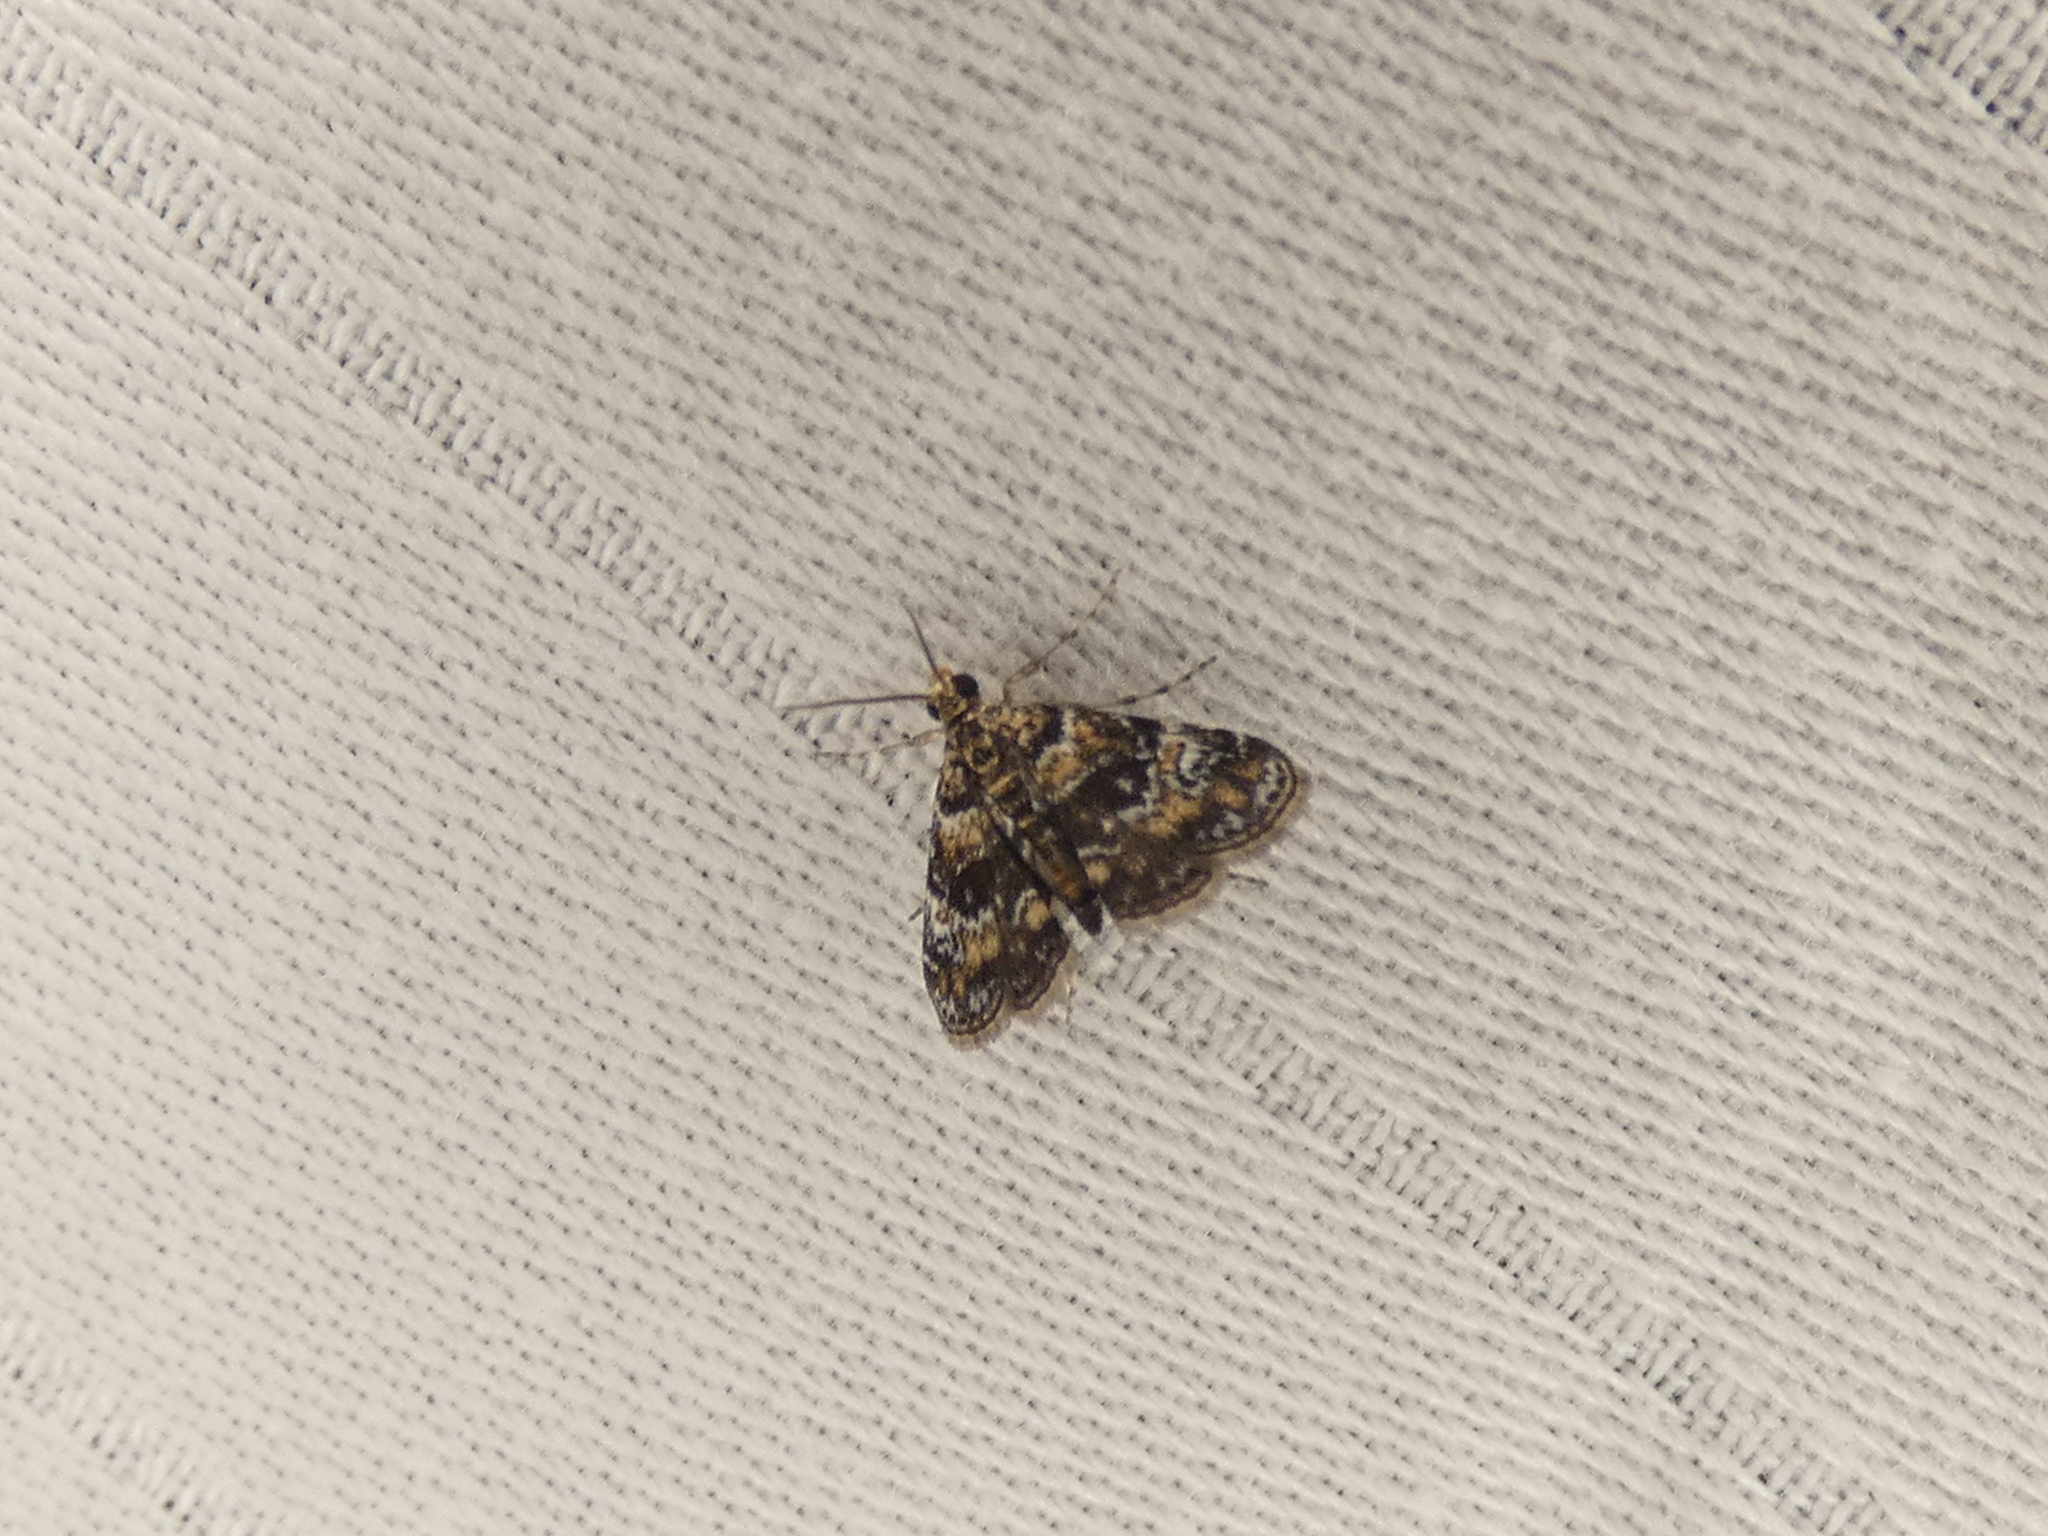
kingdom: Animalia
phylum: Arthropoda
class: Insecta
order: Lepidoptera
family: Crambidae
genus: Elophila
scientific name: Elophila obliteralis
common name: Waterlily leafcutter moth
